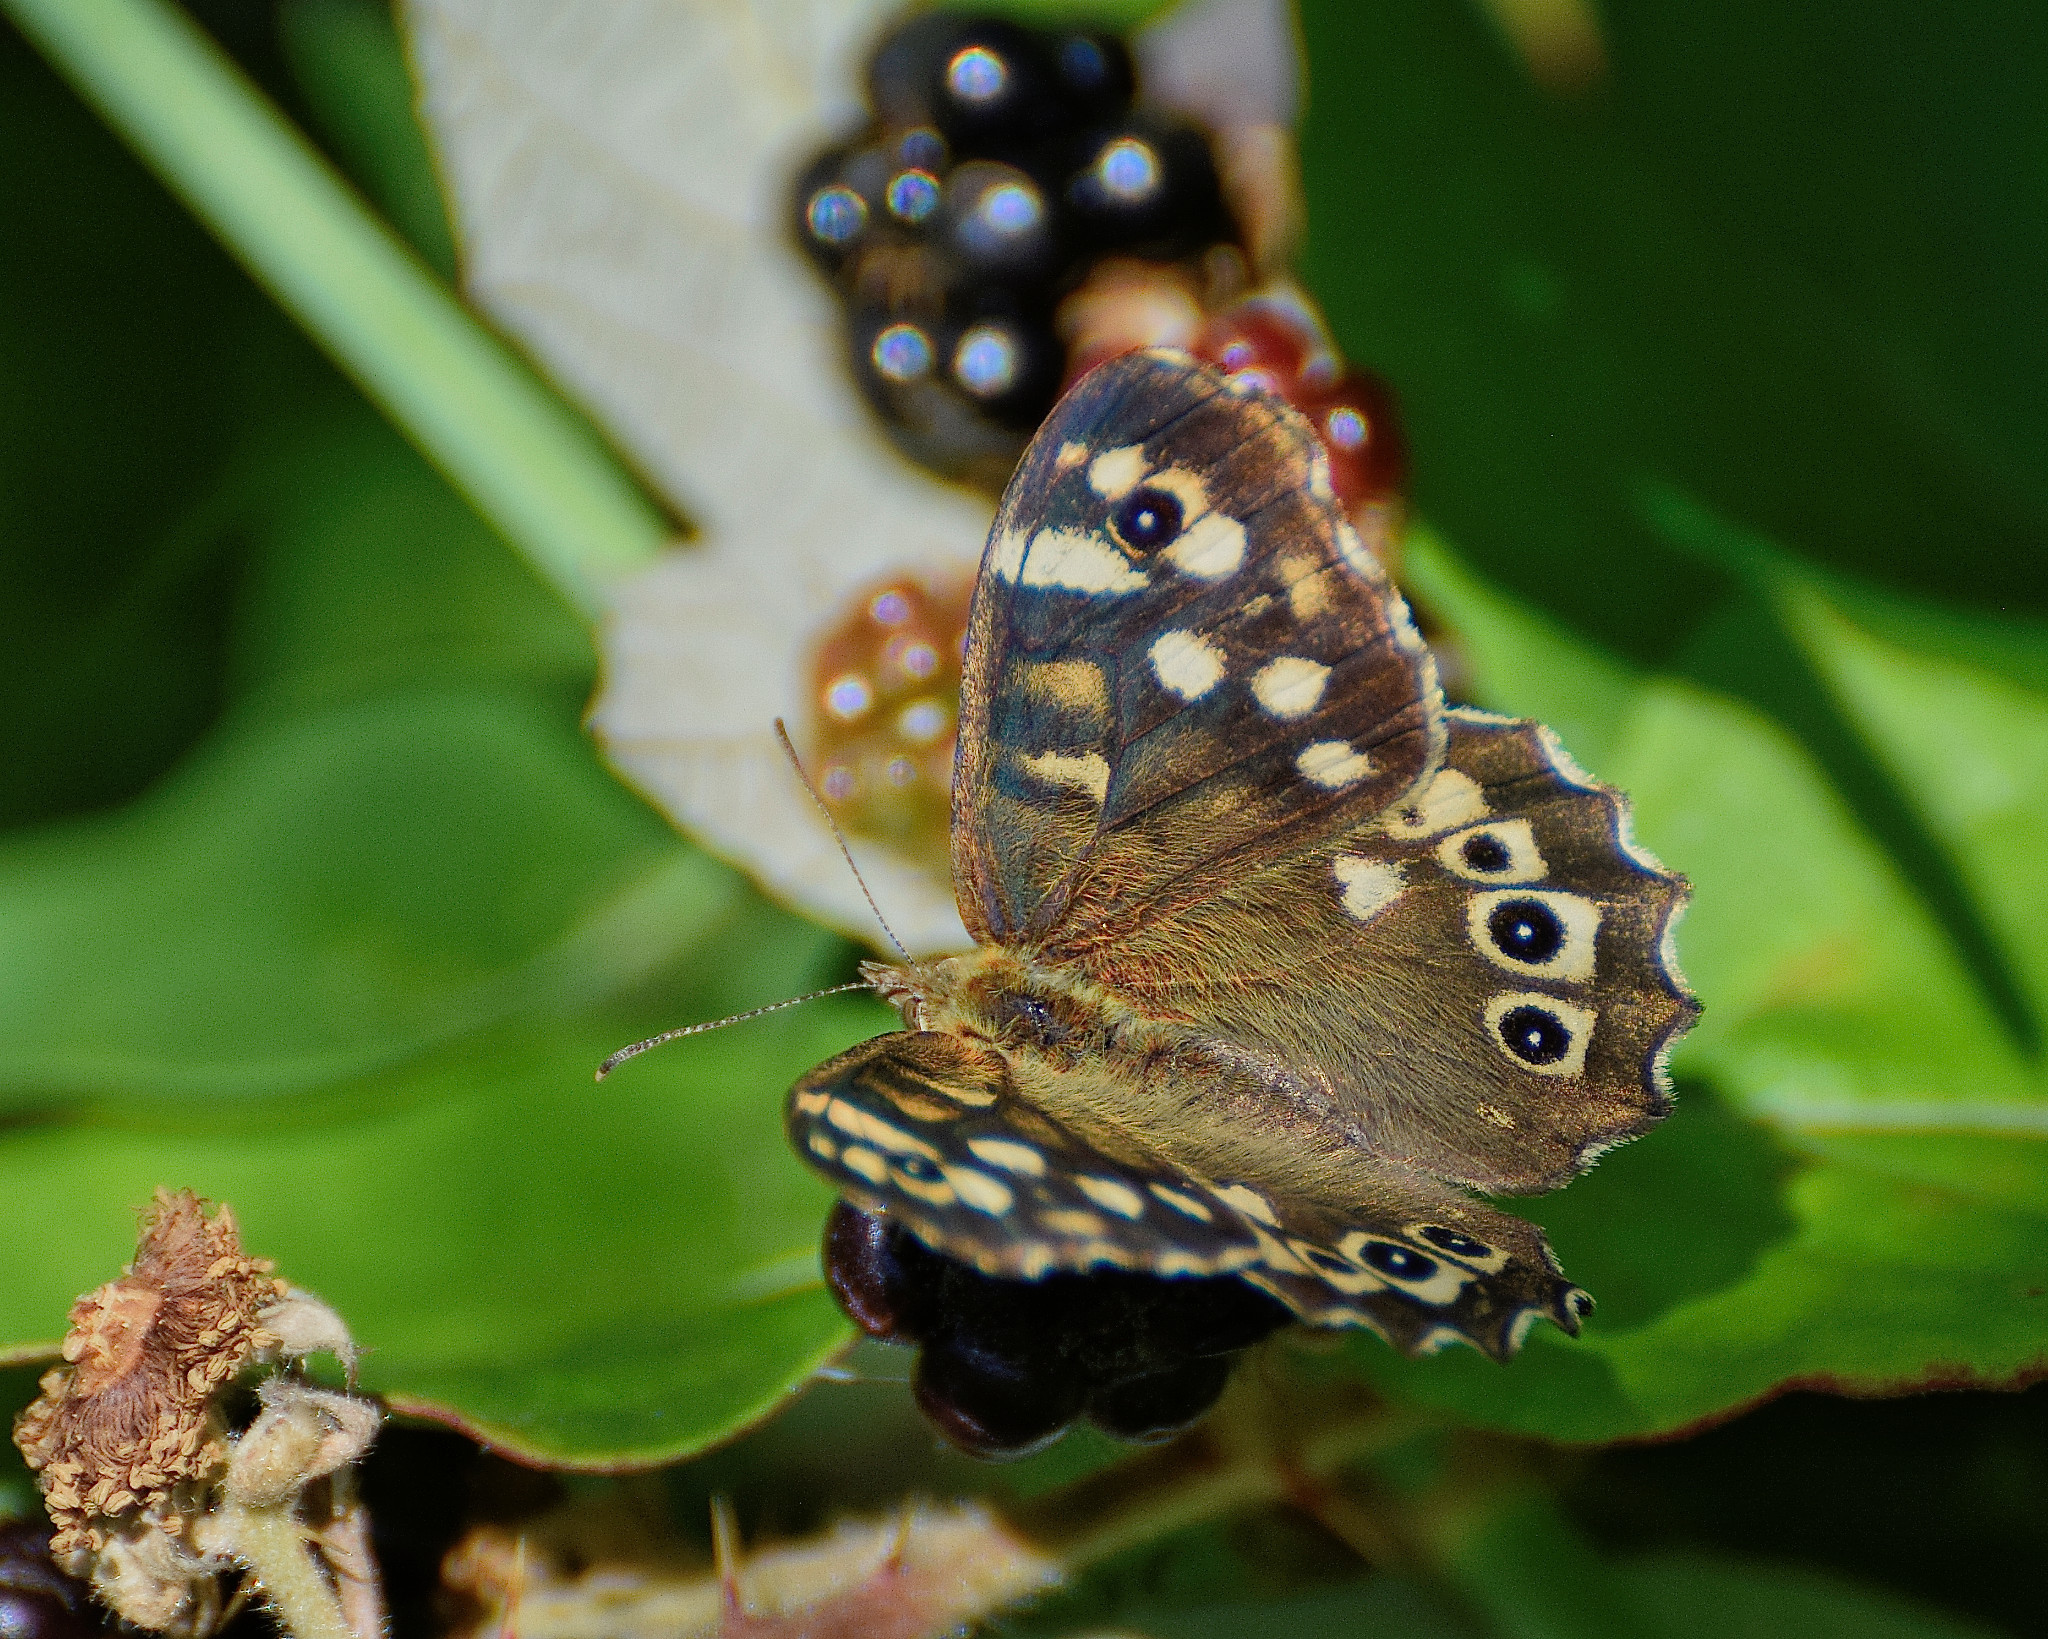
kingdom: Animalia
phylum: Arthropoda
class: Insecta
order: Lepidoptera
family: Nymphalidae
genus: Pararge
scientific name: Pararge aegeria
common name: Speckled wood
